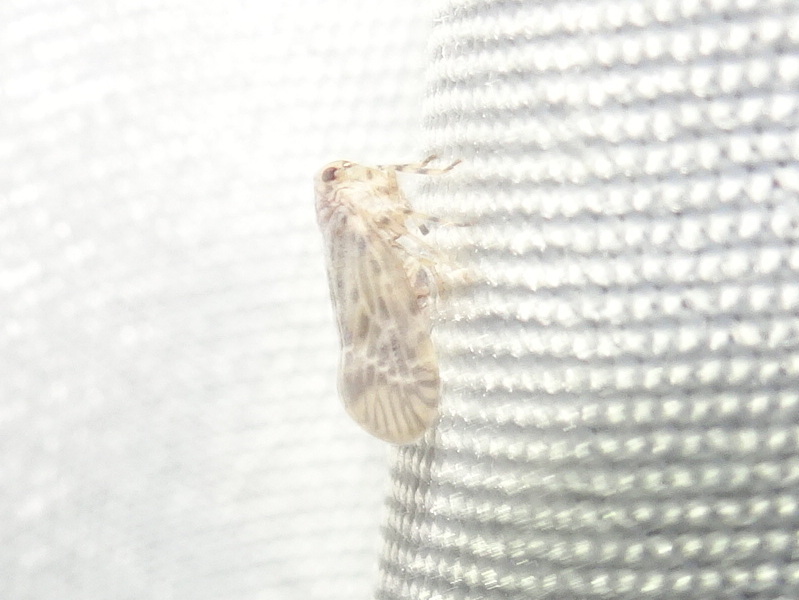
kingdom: Animalia
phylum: Arthropoda
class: Insecta
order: Hemiptera
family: Derbidae
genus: Cedusa
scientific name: Cedusa maculata
